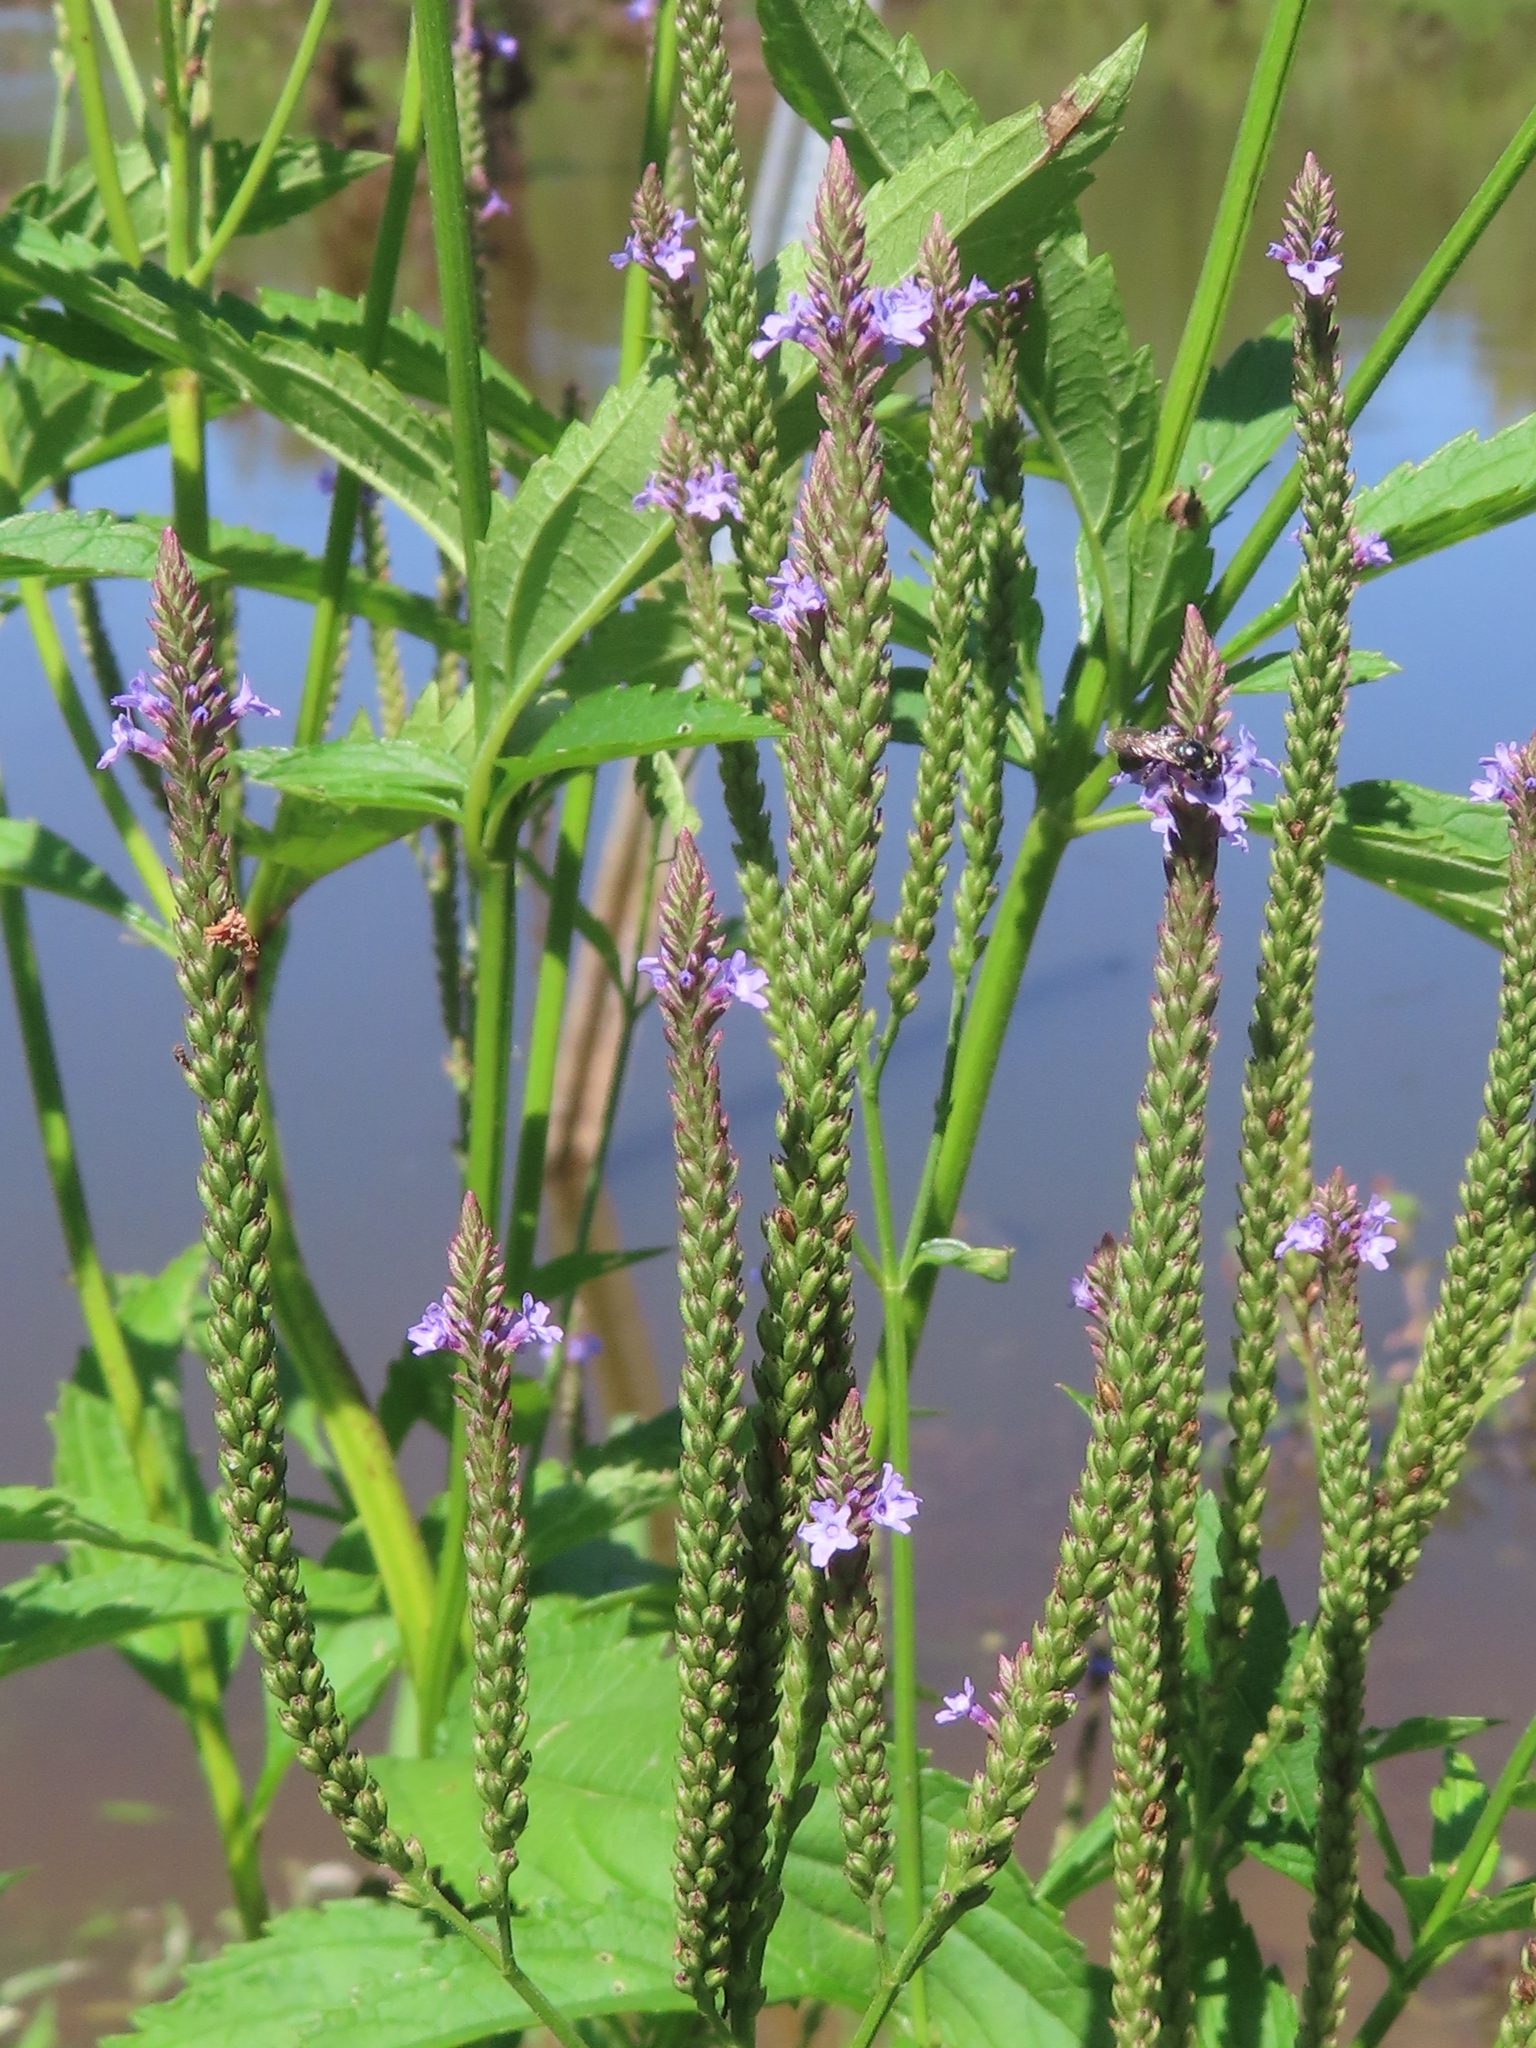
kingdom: Plantae
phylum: Tracheophyta
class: Magnoliopsida
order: Lamiales
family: Verbenaceae
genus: Verbena
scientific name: Verbena hastata
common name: American blue vervain
